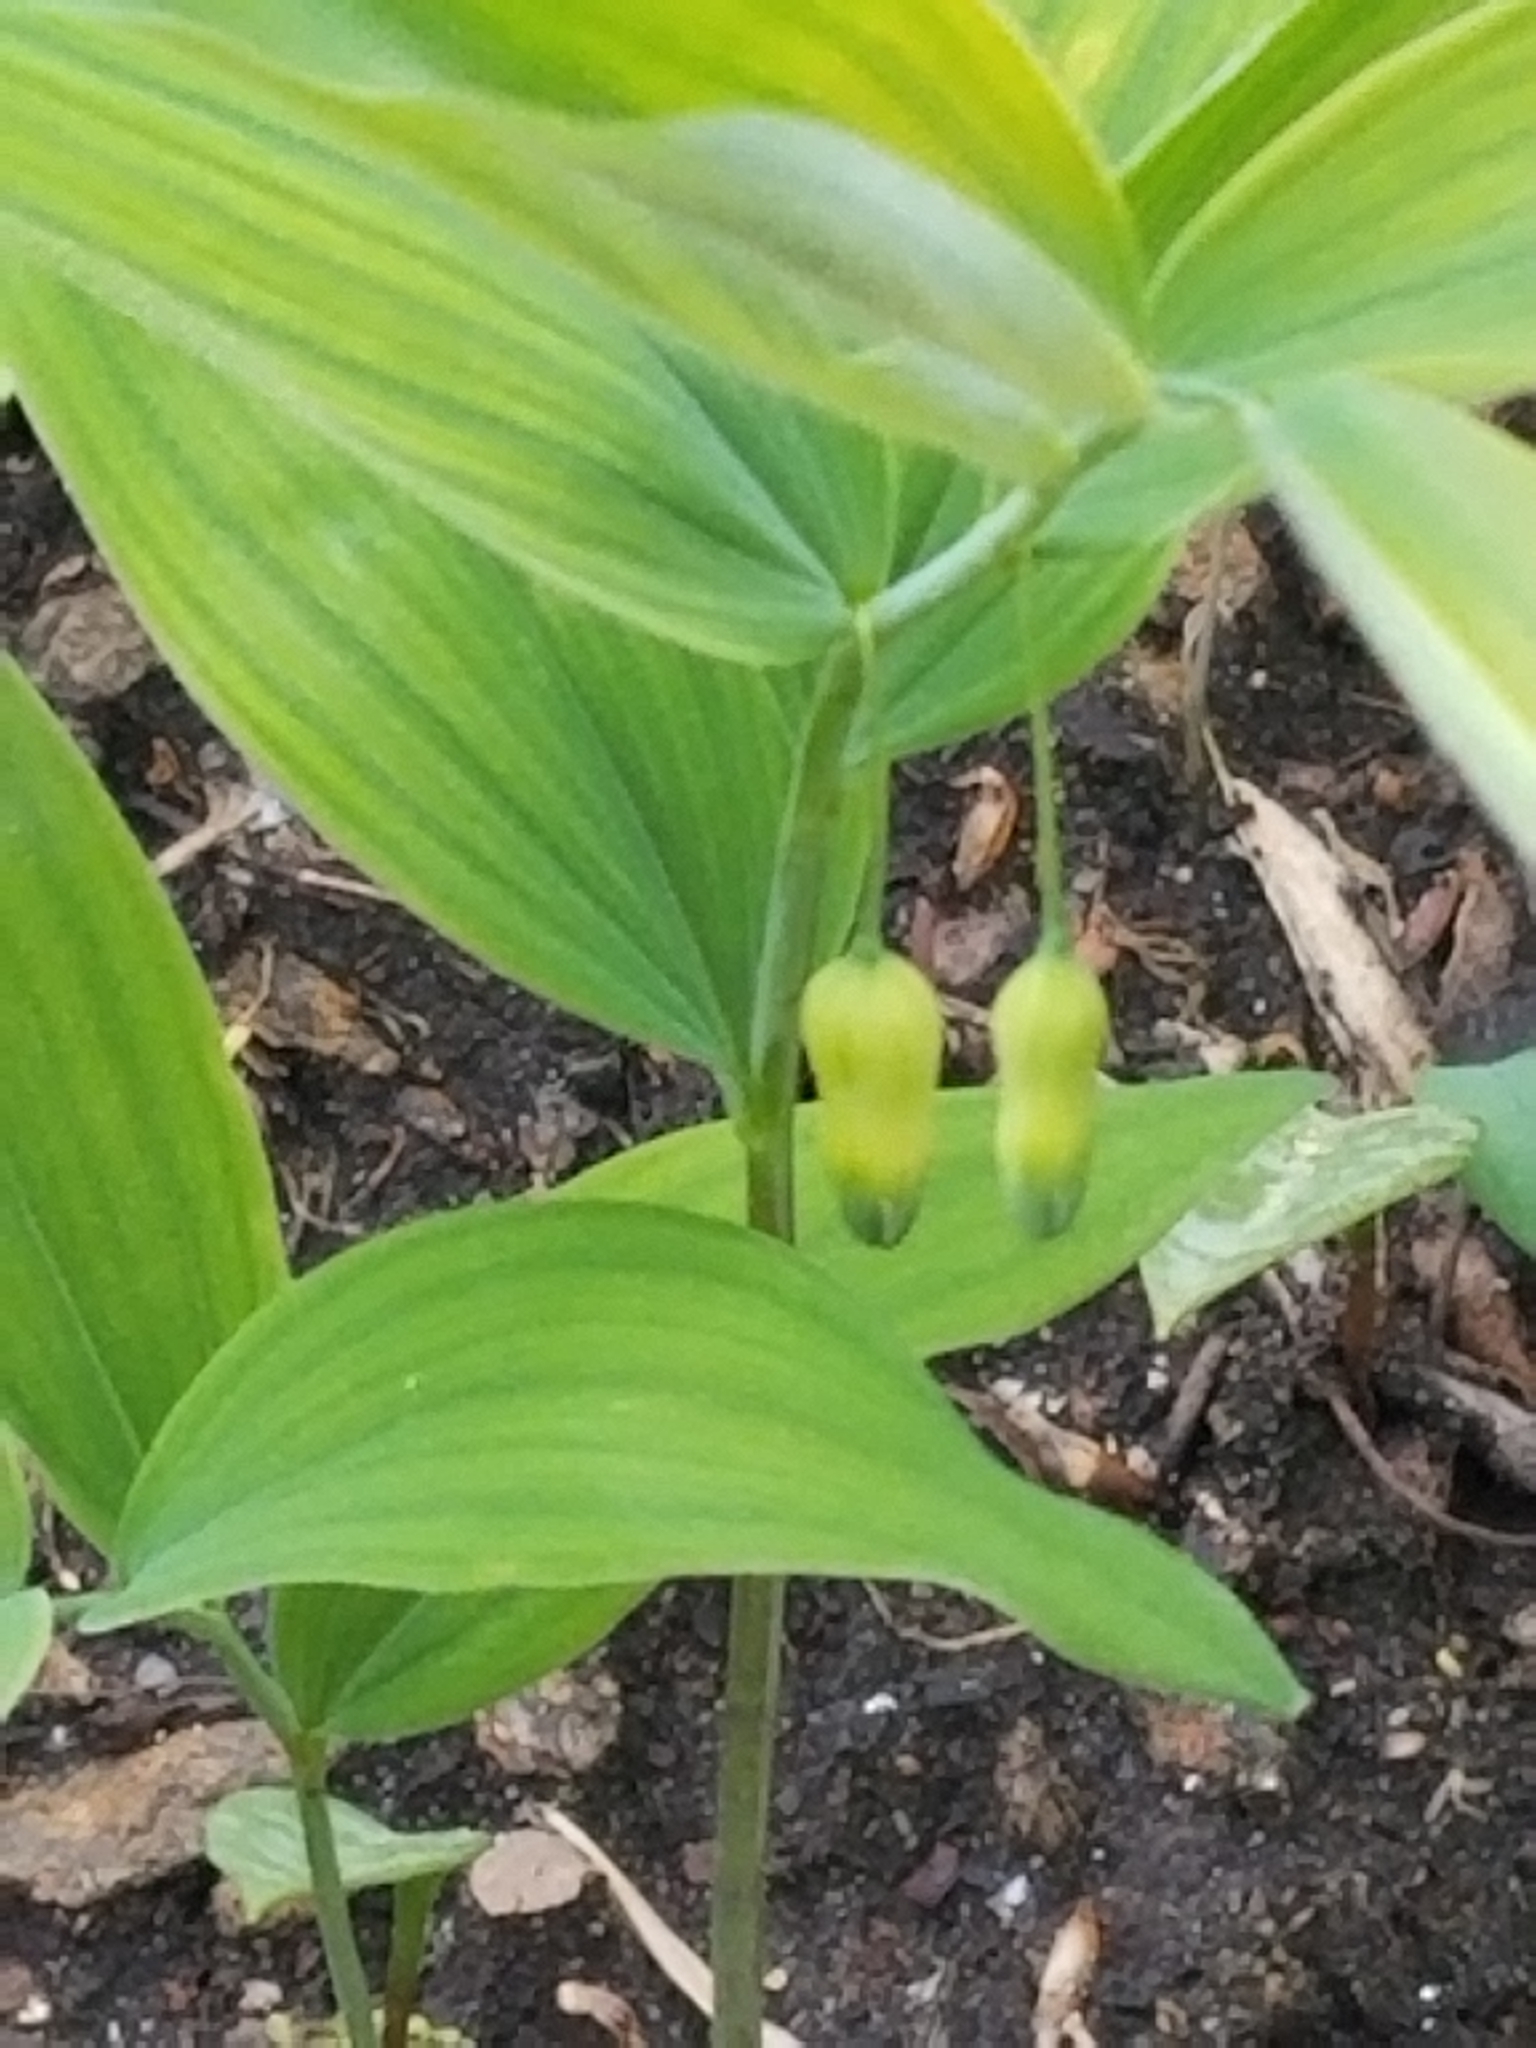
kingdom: Plantae
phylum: Tracheophyta
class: Liliopsida
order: Asparagales
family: Asparagaceae
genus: Polygonatum
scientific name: Polygonatum pubescens
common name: Downy solomon's seal
